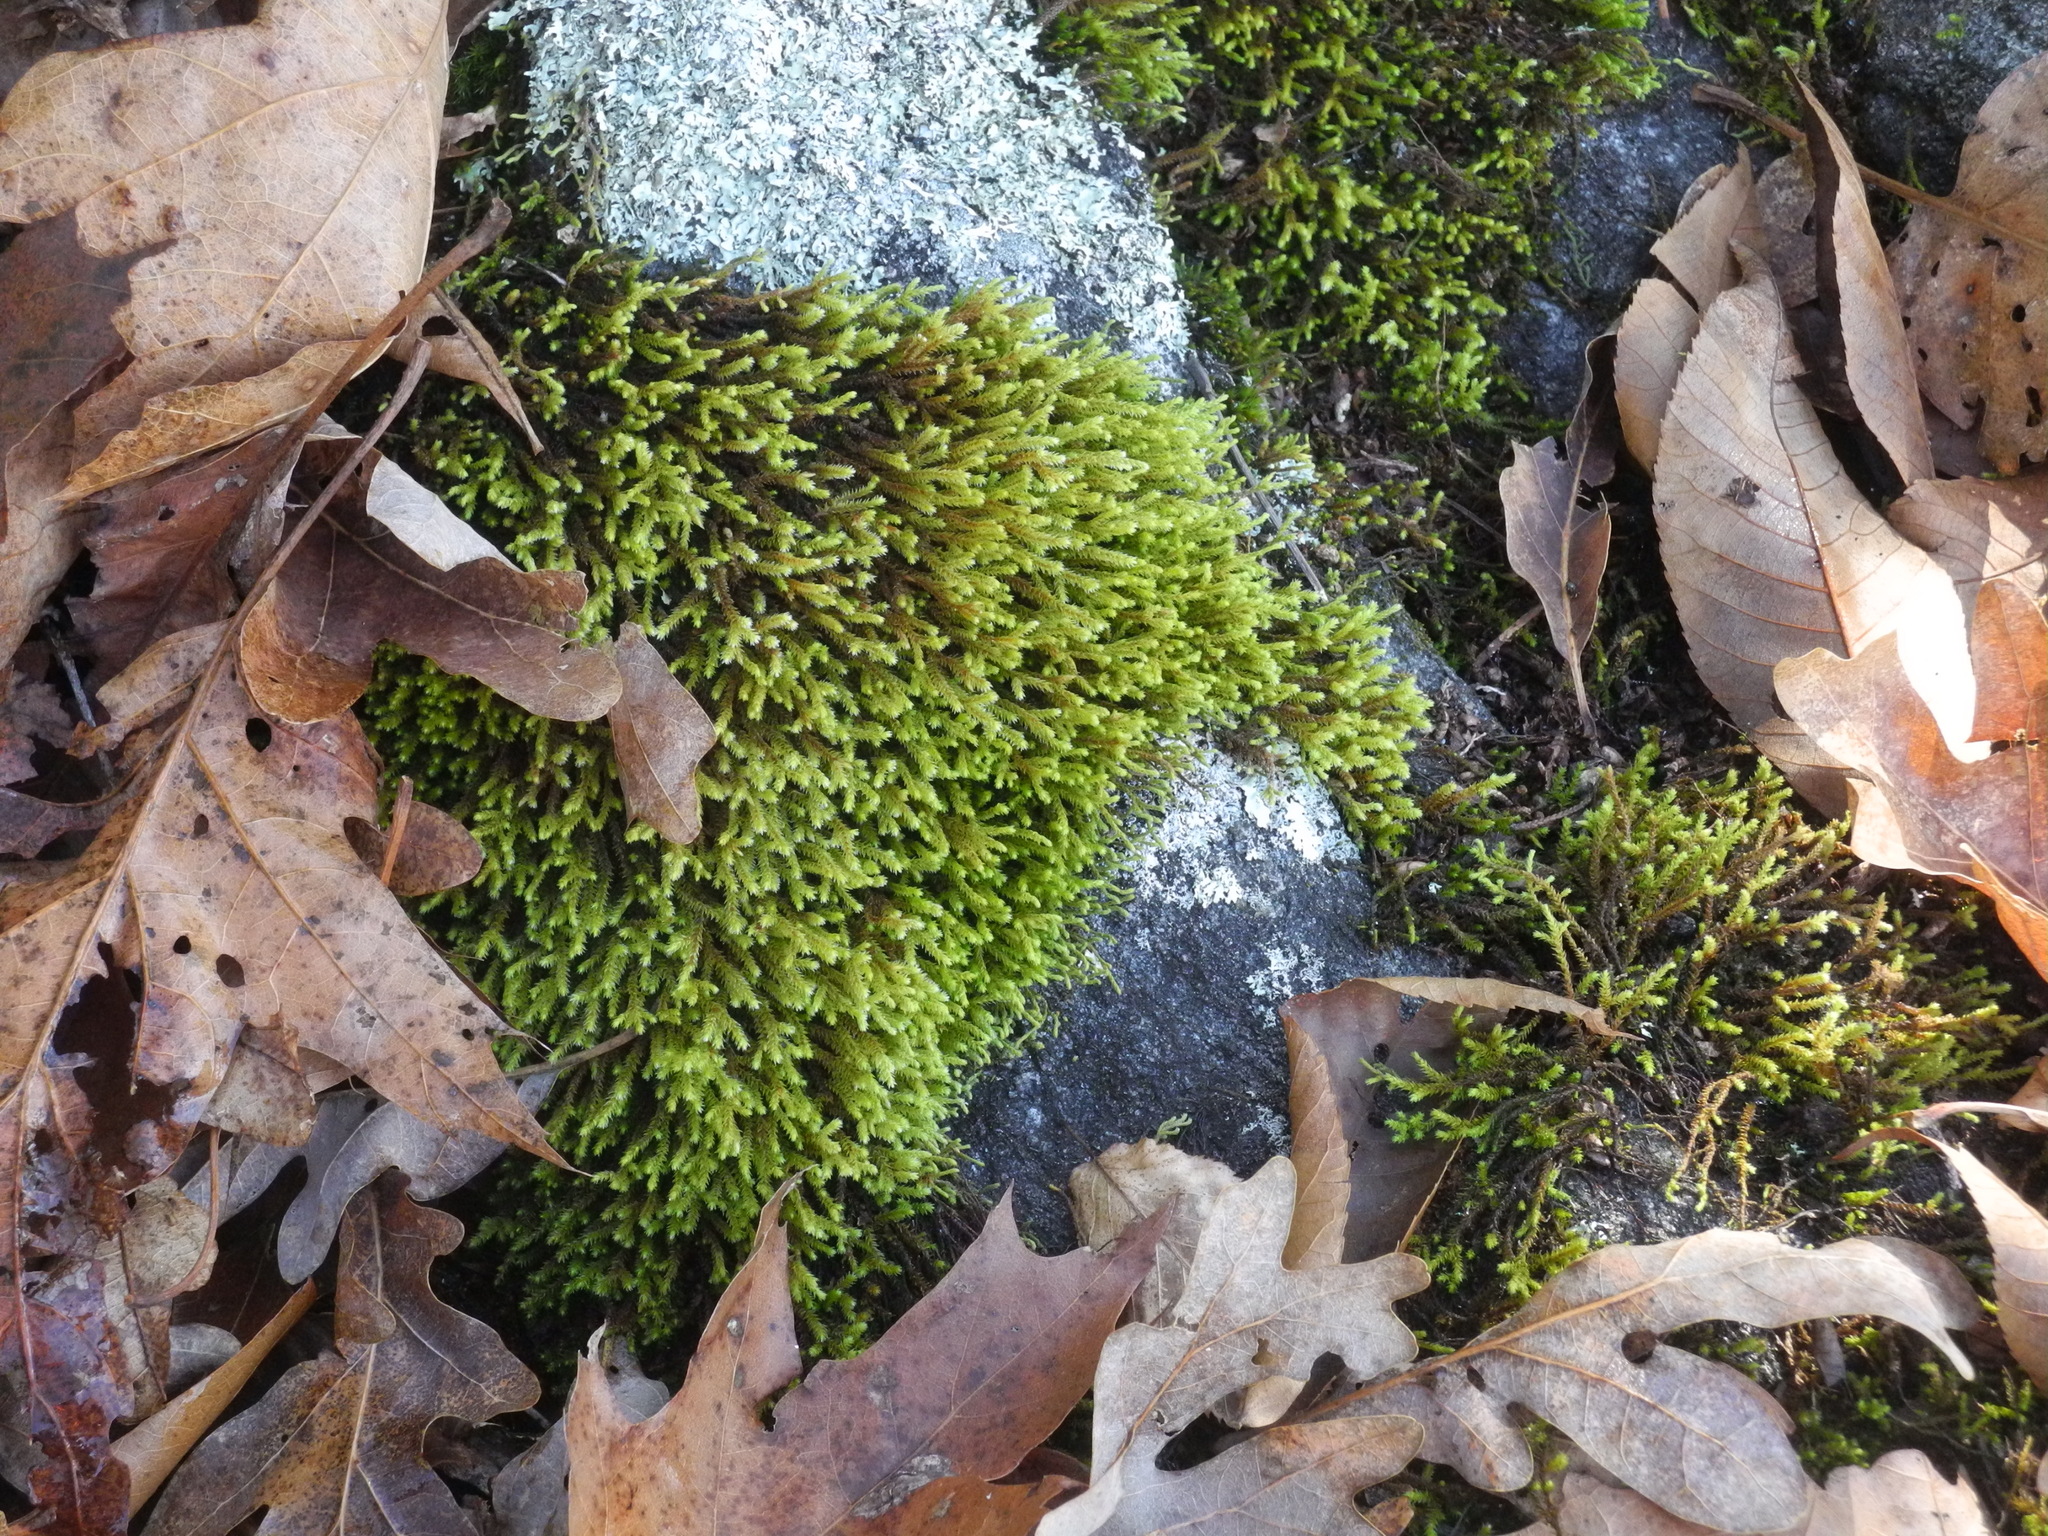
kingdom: Plantae
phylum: Bryophyta
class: Bryopsida
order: Hedwigiales
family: Hedwigiaceae
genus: Hedwigia
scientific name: Hedwigia ciliata
